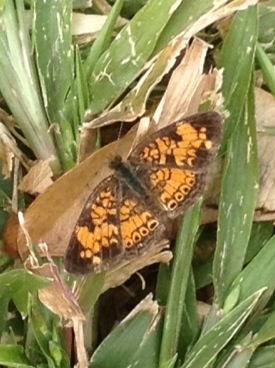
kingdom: Animalia
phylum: Arthropoda
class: Insecta
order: Lepidoptera
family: Nymphalidae
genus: Phyciodes
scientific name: Phyciodes tharos
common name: Pearl crescent
